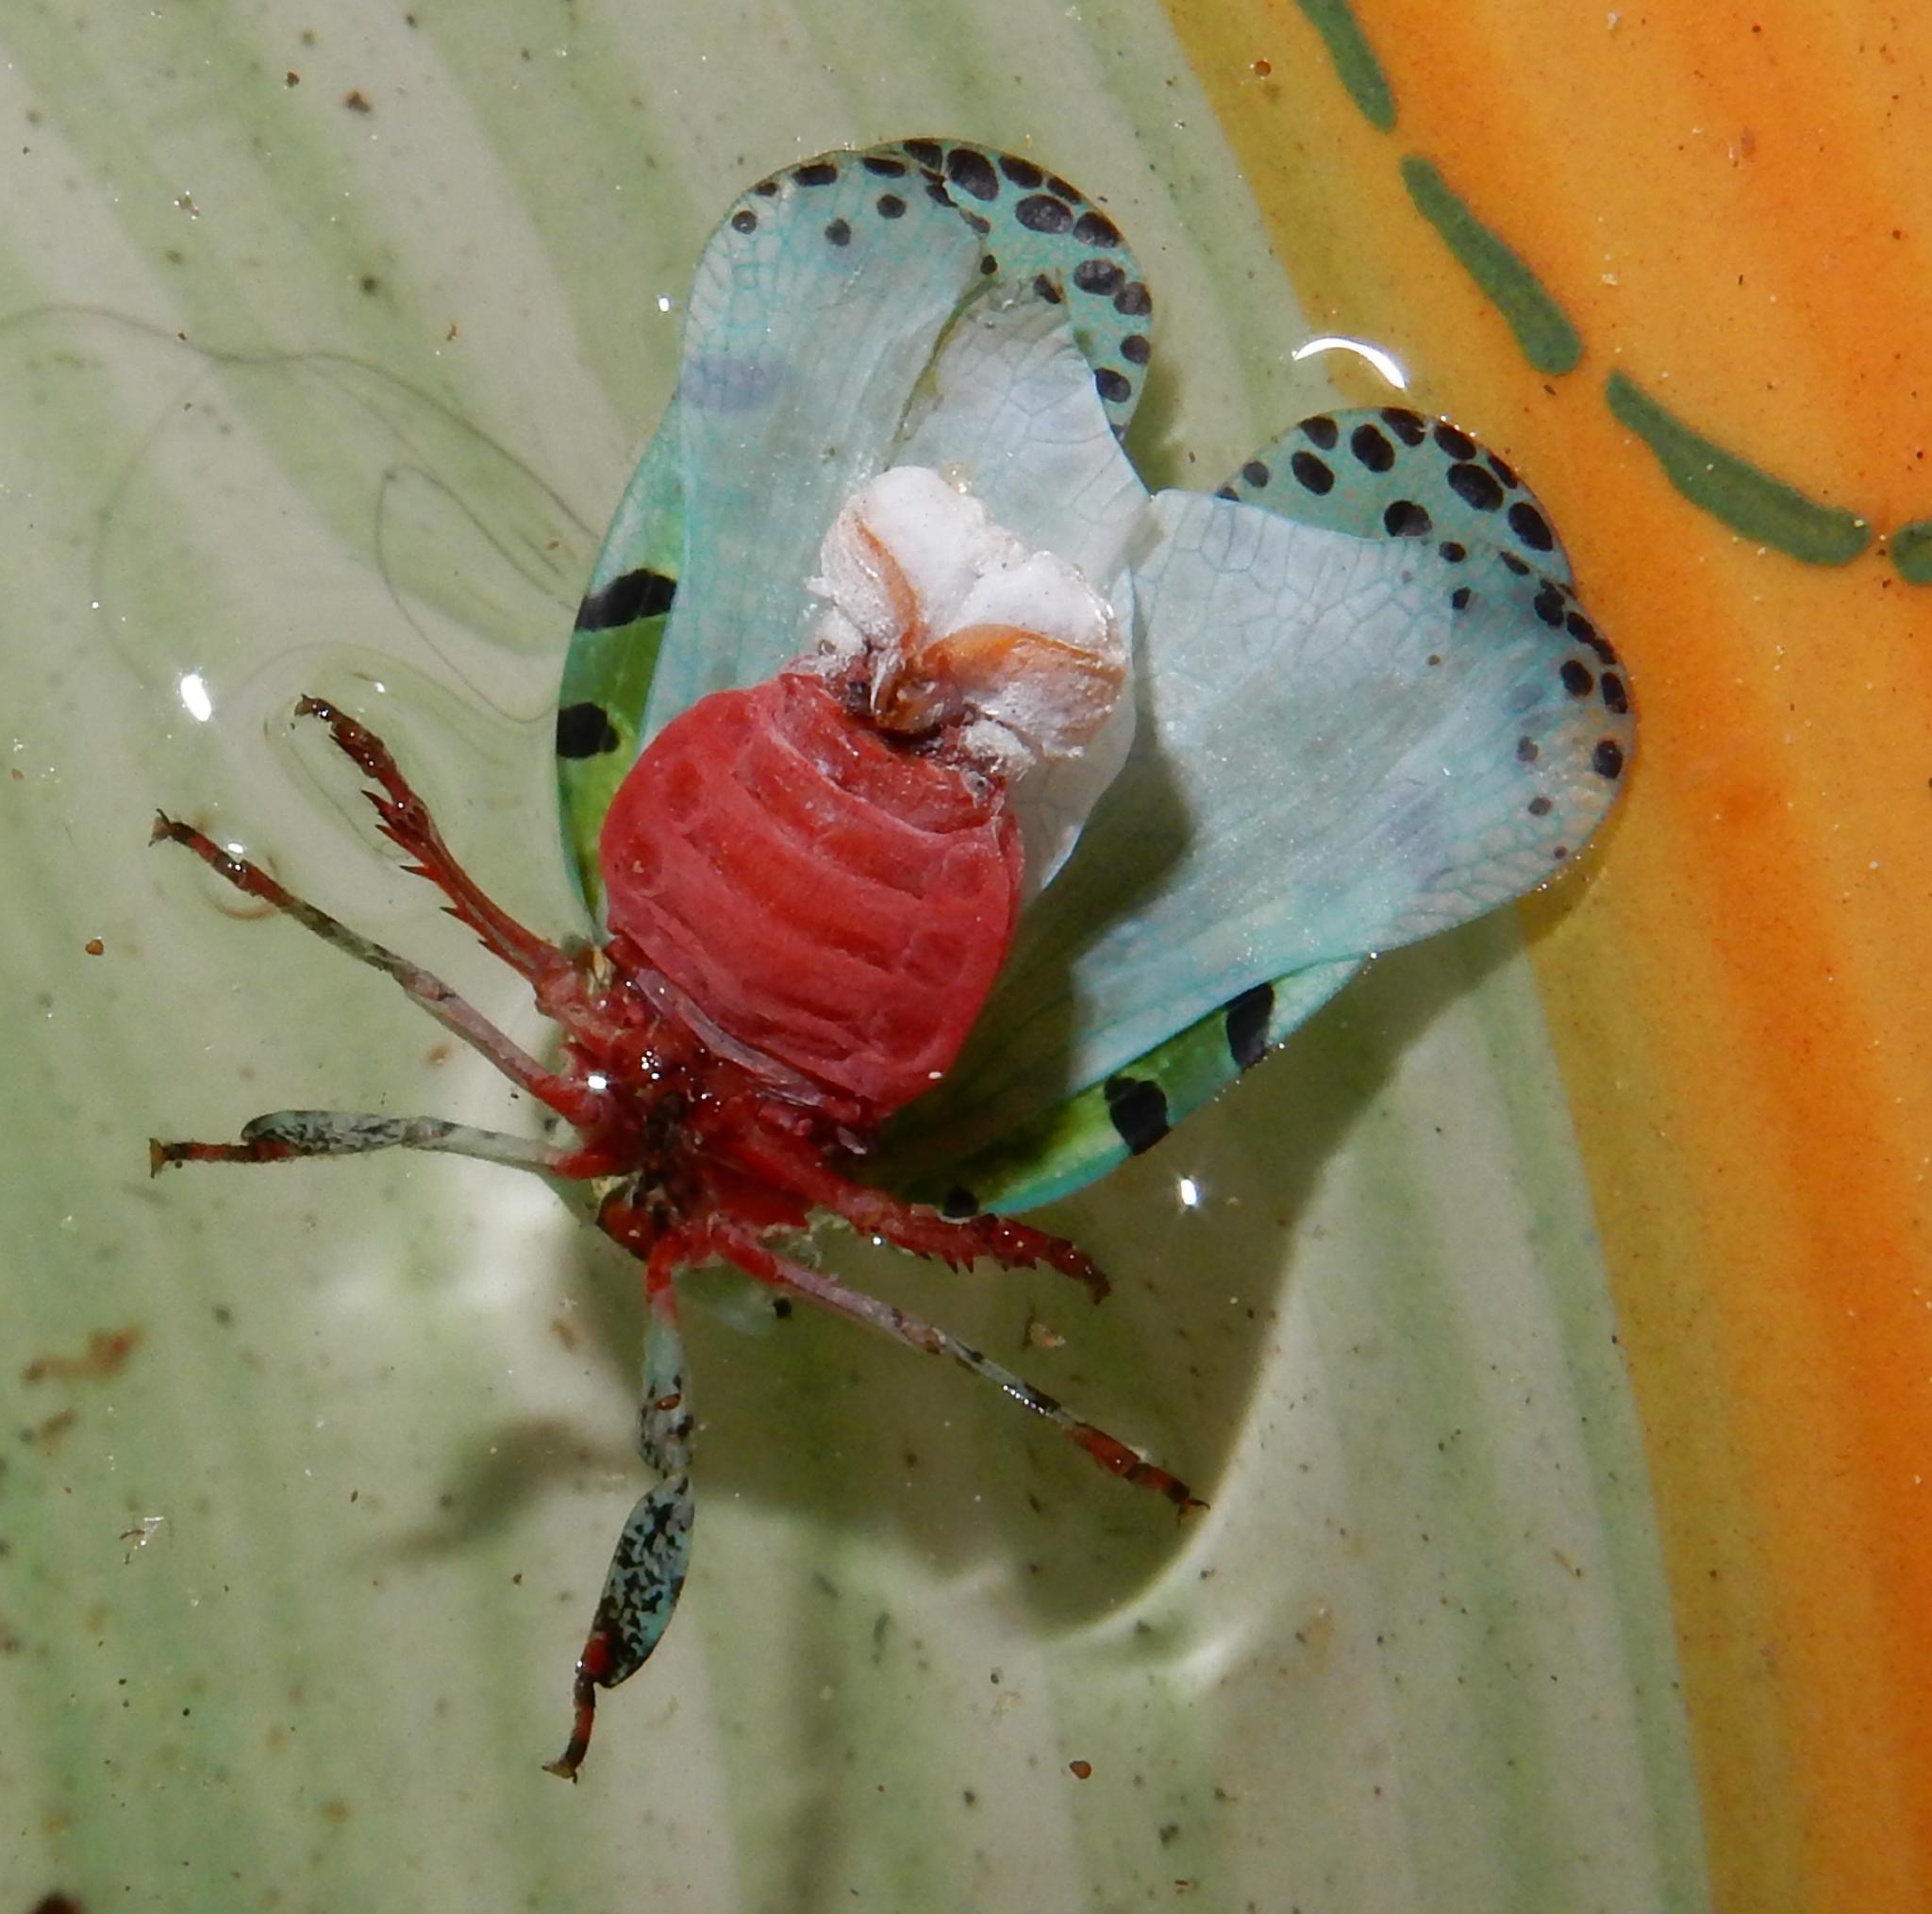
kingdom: Animalia
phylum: Arthropoda
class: Insecta
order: Hemiptera
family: Eurybrachidae
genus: Paropioxys
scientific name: Paropioxys jucundus
